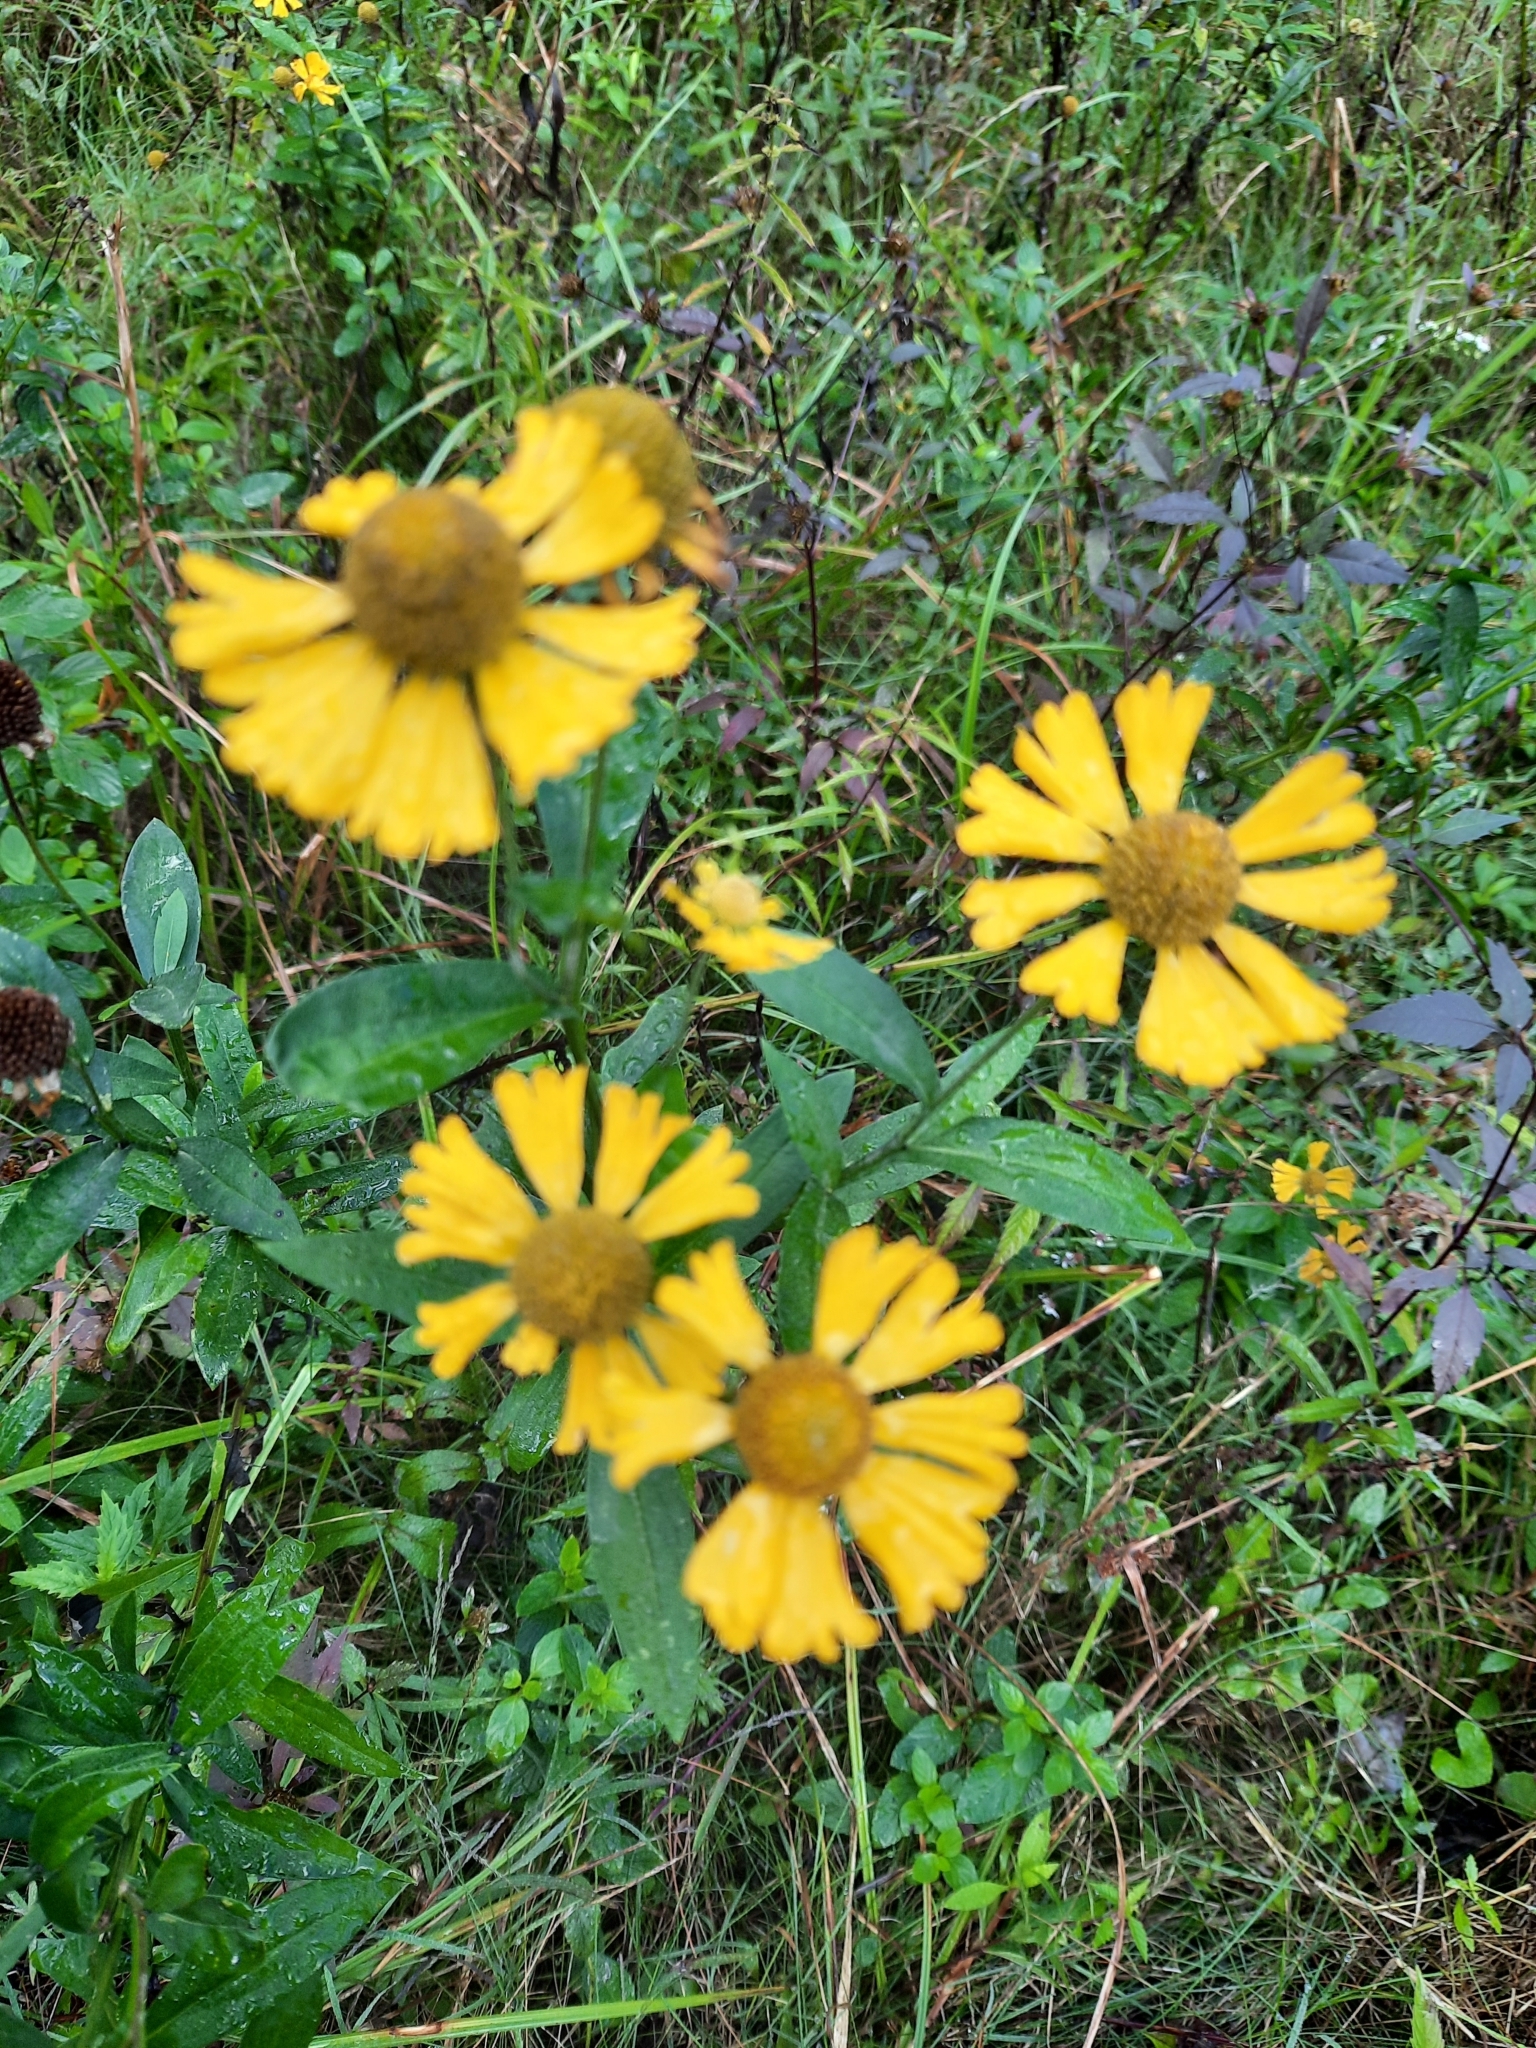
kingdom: Plantae
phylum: Tracheophyta
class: Magnoliopsida
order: Asterales
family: Asteraceae
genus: Helenium
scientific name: Helenium autumnale
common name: Sneezeweed
